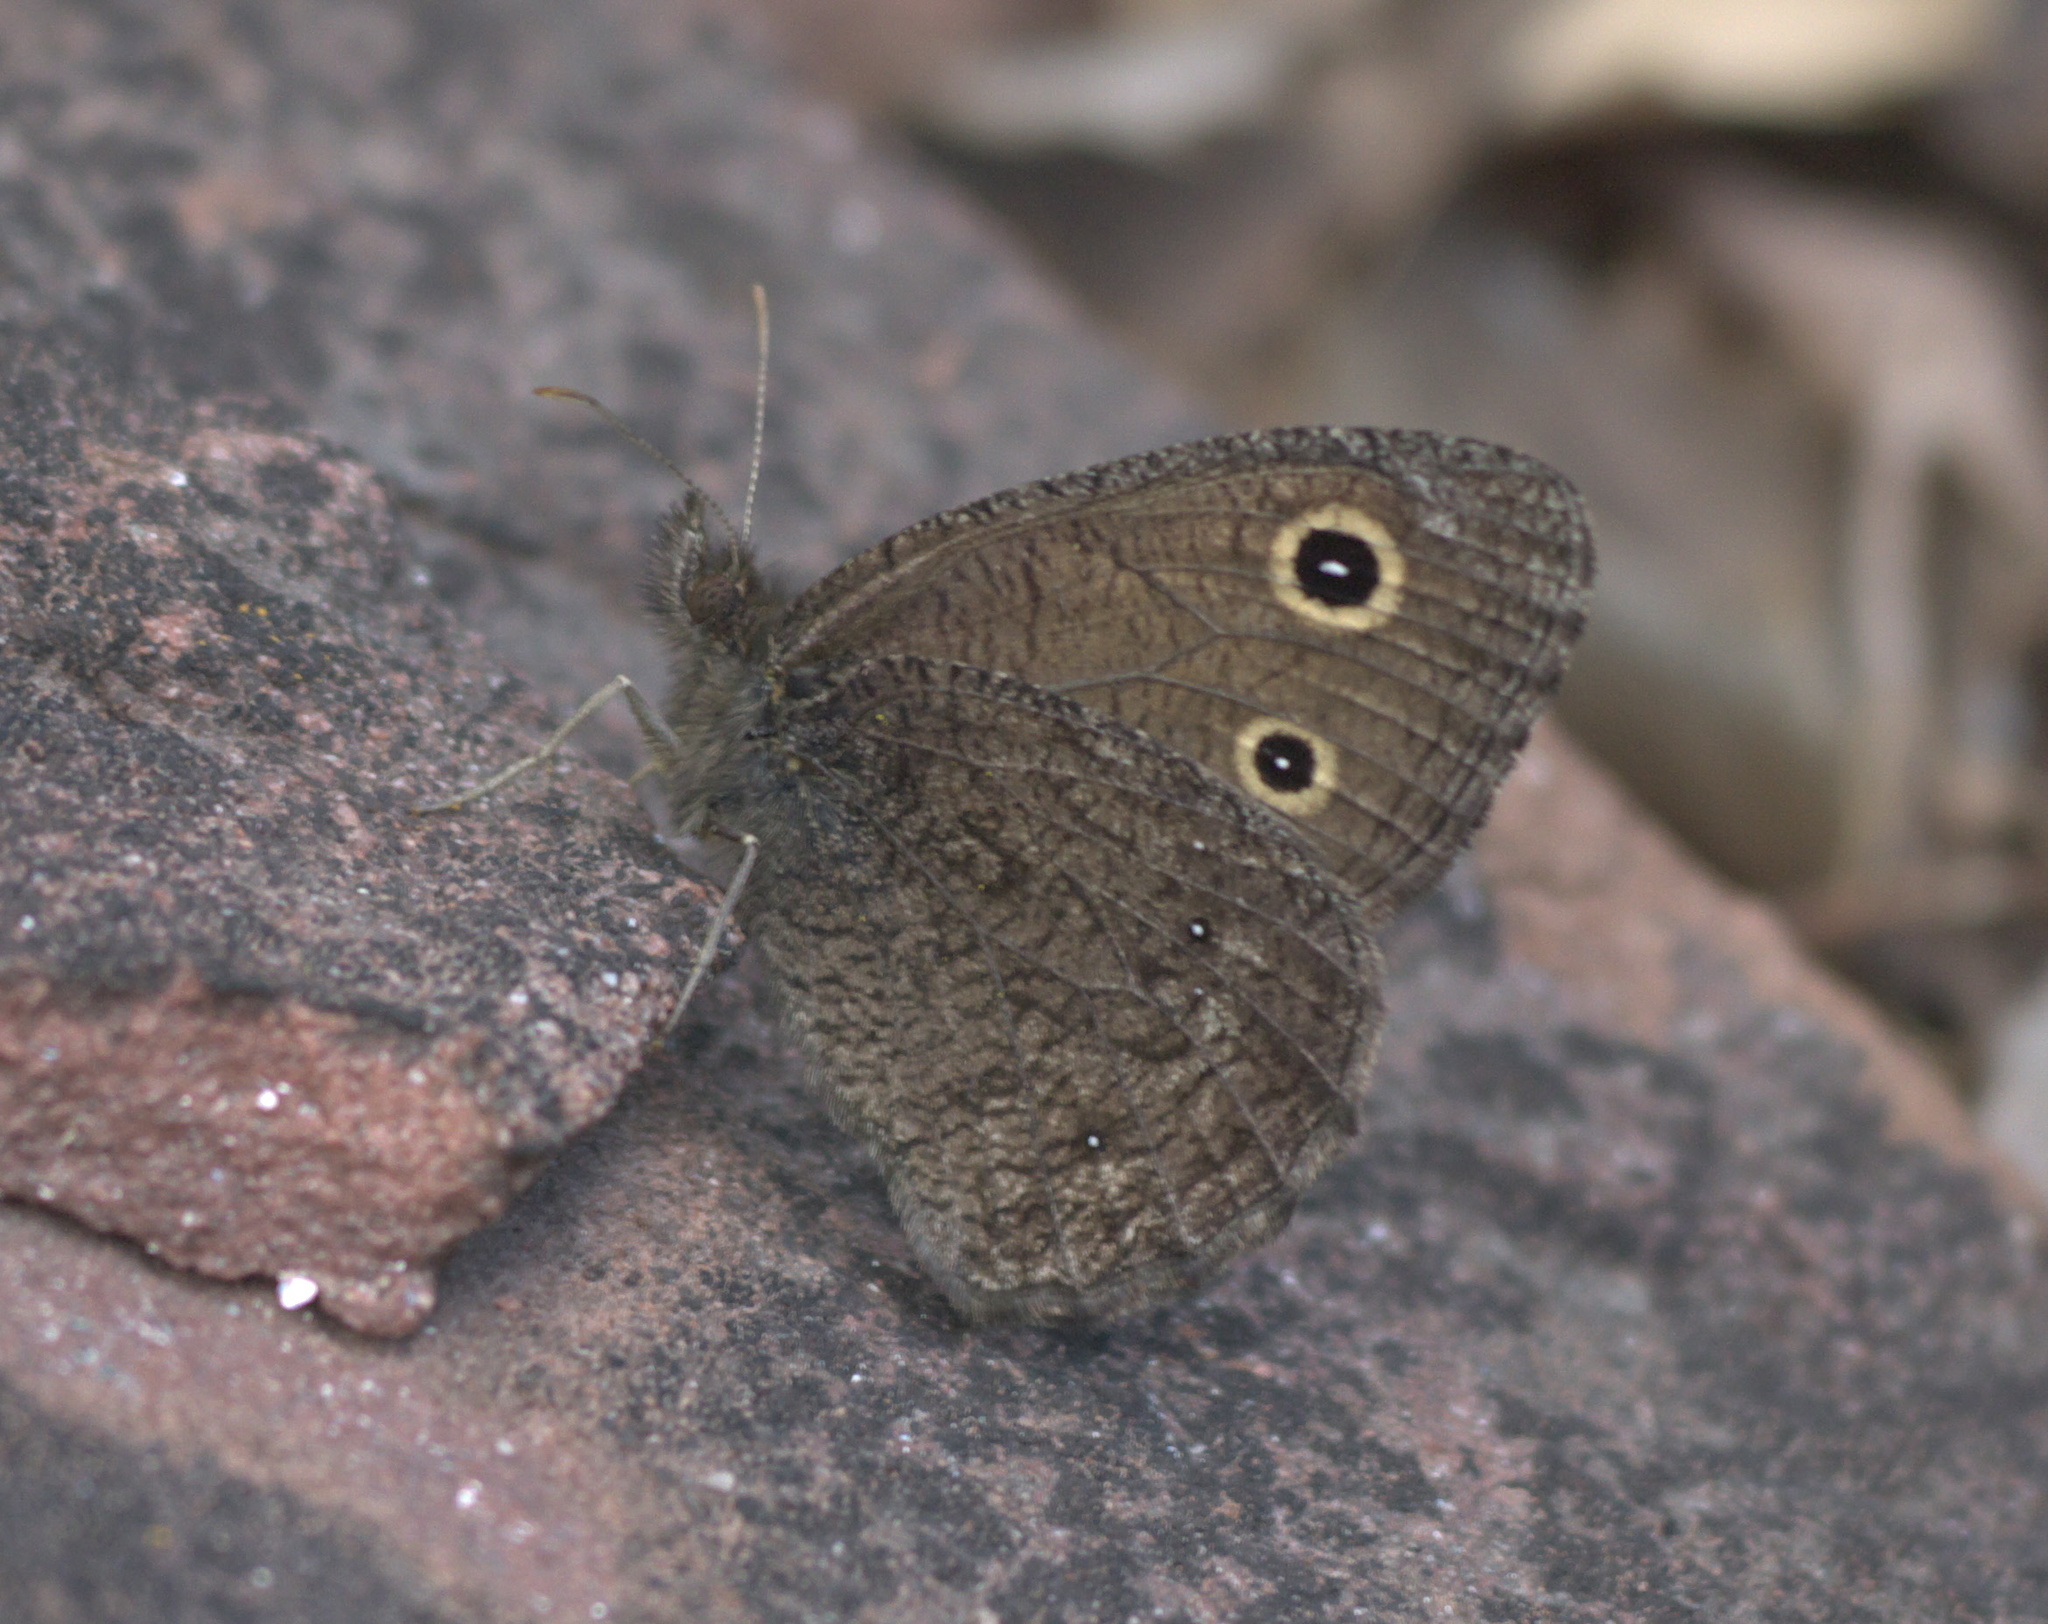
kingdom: Animalia
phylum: Arthropoda
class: Insecta
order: Lepidoptera
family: Nymphalidae
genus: Cercyonis
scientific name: Cercyonis oetus
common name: Small wood-nymph
